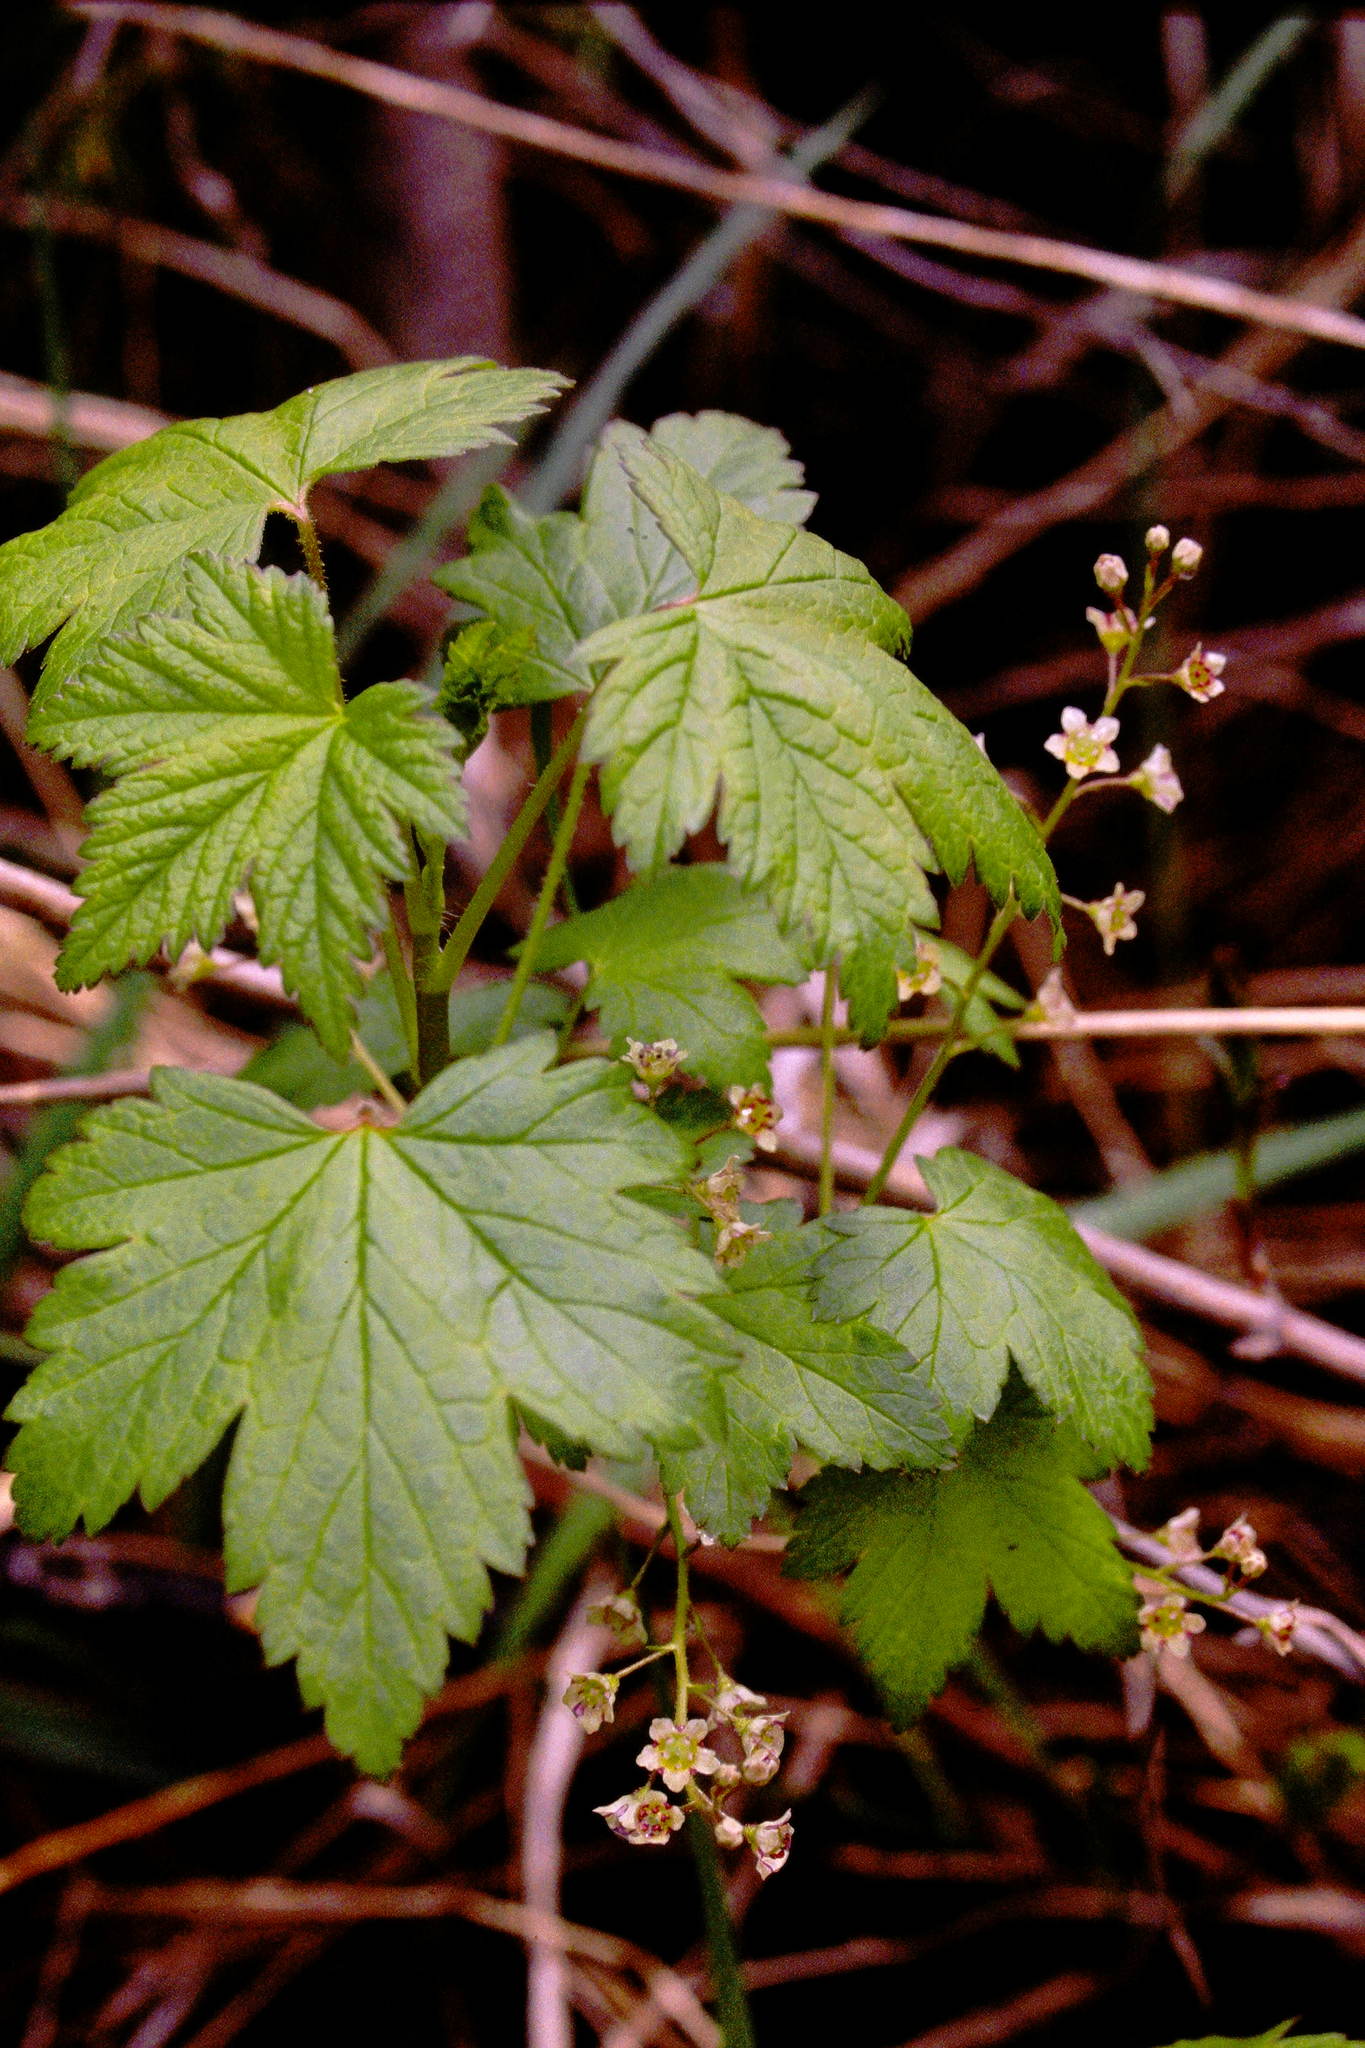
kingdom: Plantae
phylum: Tracheophyta
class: Magnoliopsida
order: Saxifragales
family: Grossulariaceae
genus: Ribes
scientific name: Ribes glandulosum
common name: Skunk currant
